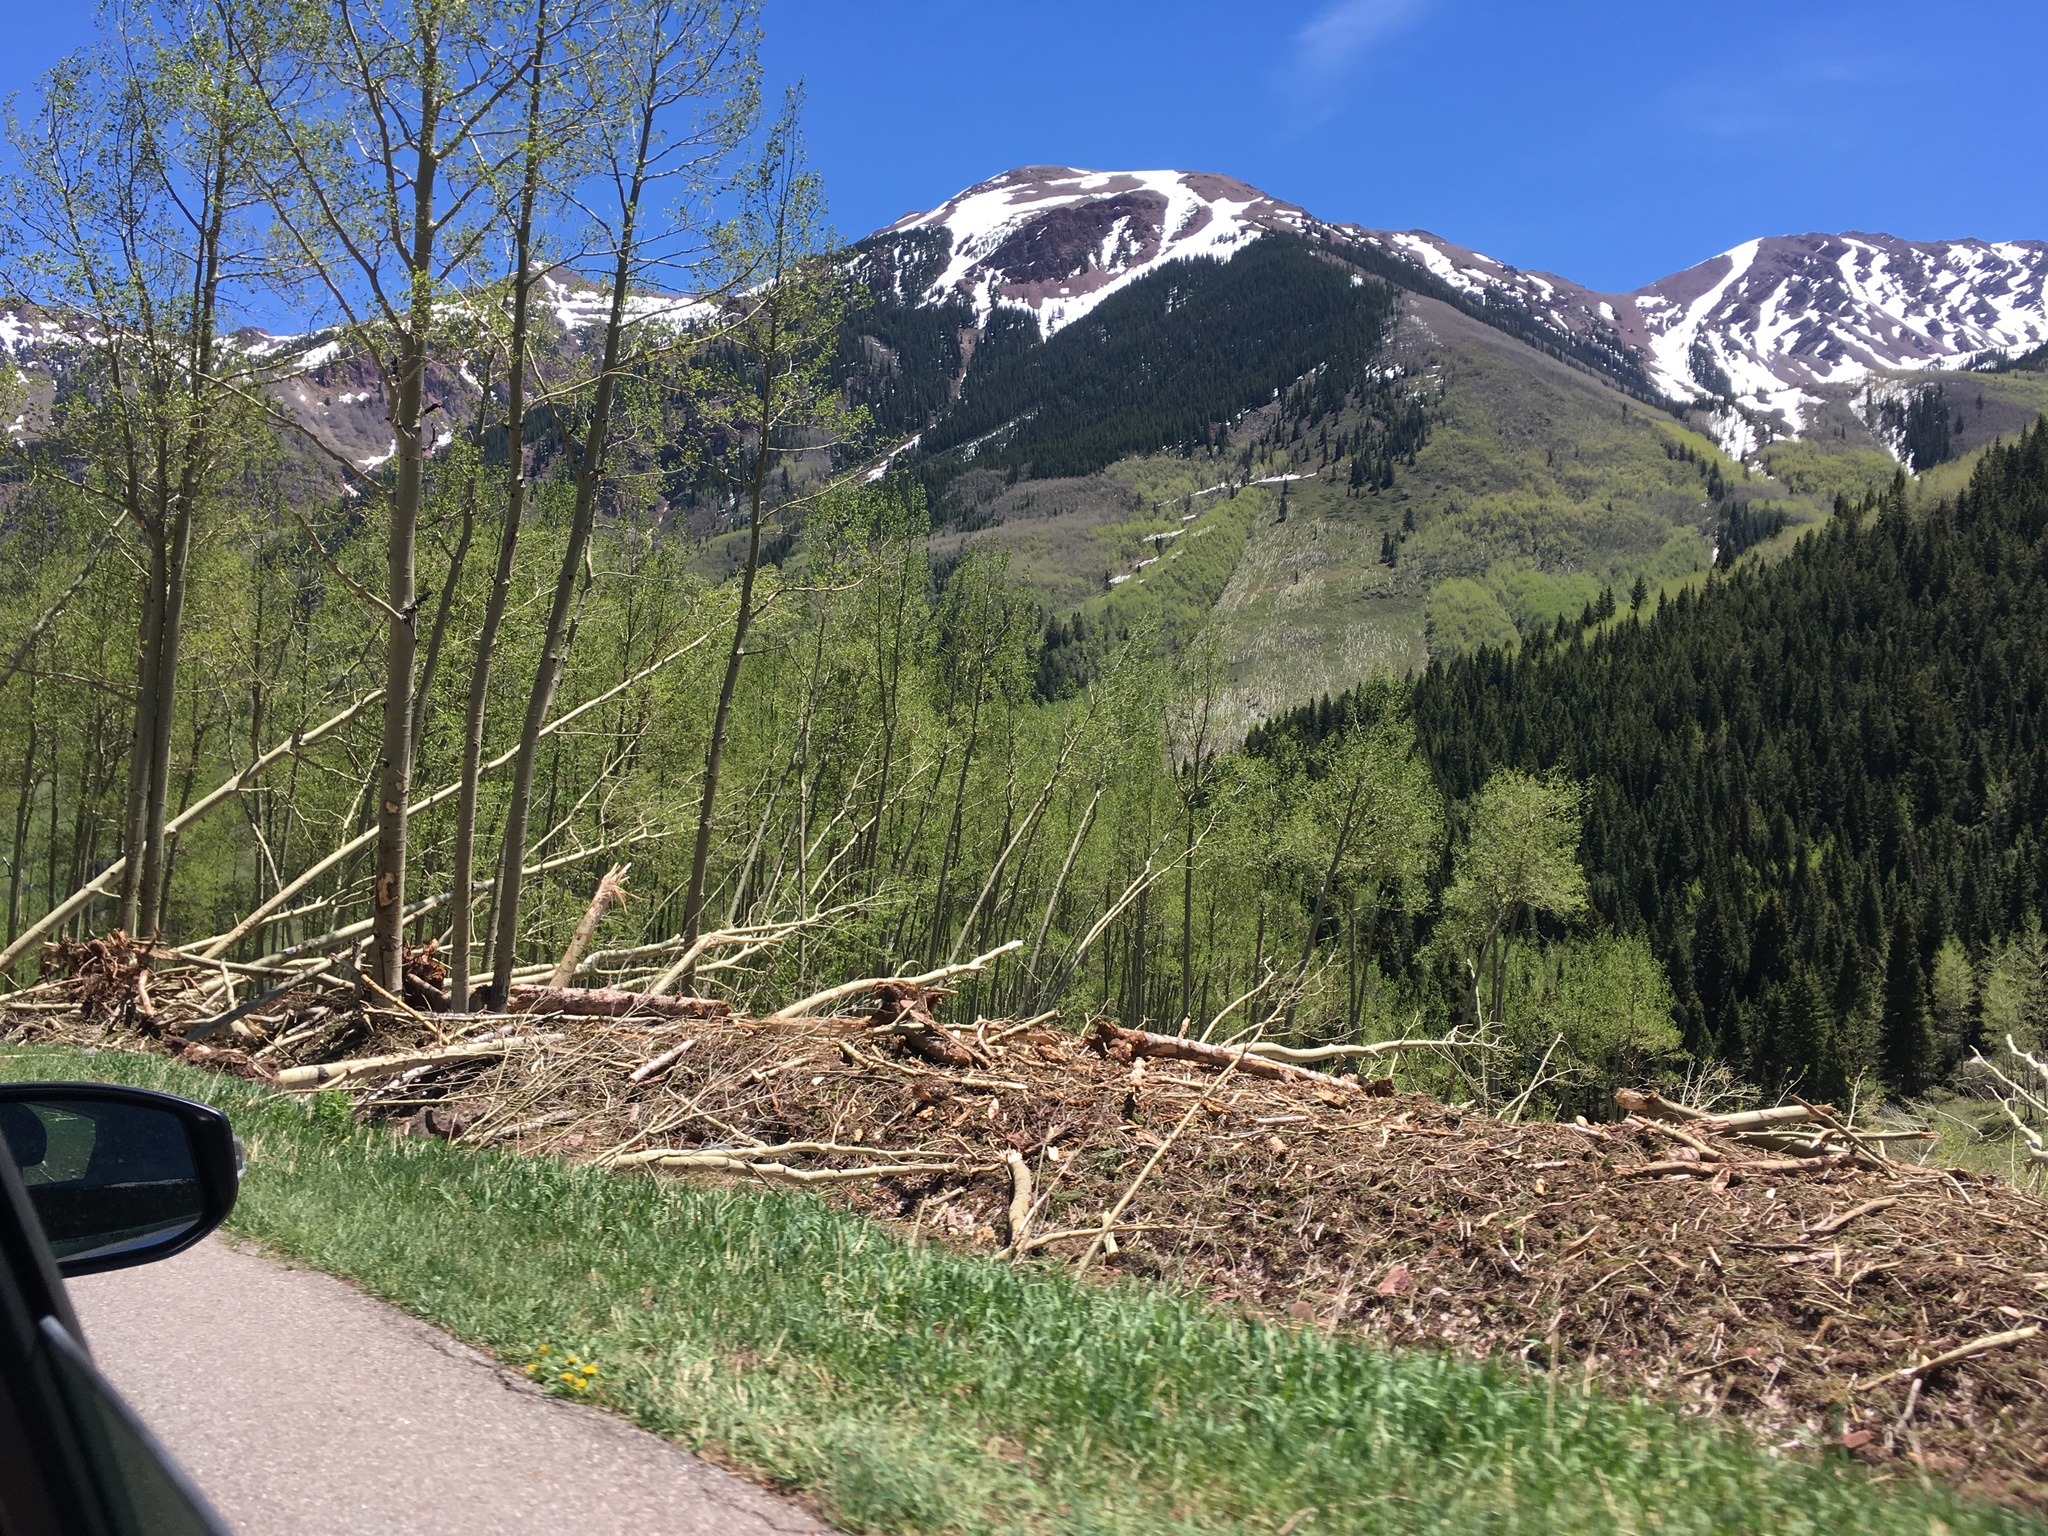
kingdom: Plantae
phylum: Tracheophyta
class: Magnoliopsida
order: Malpighiales
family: Salicaceae
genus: Populus
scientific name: Populus tremuloides
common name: Quaking aspen
